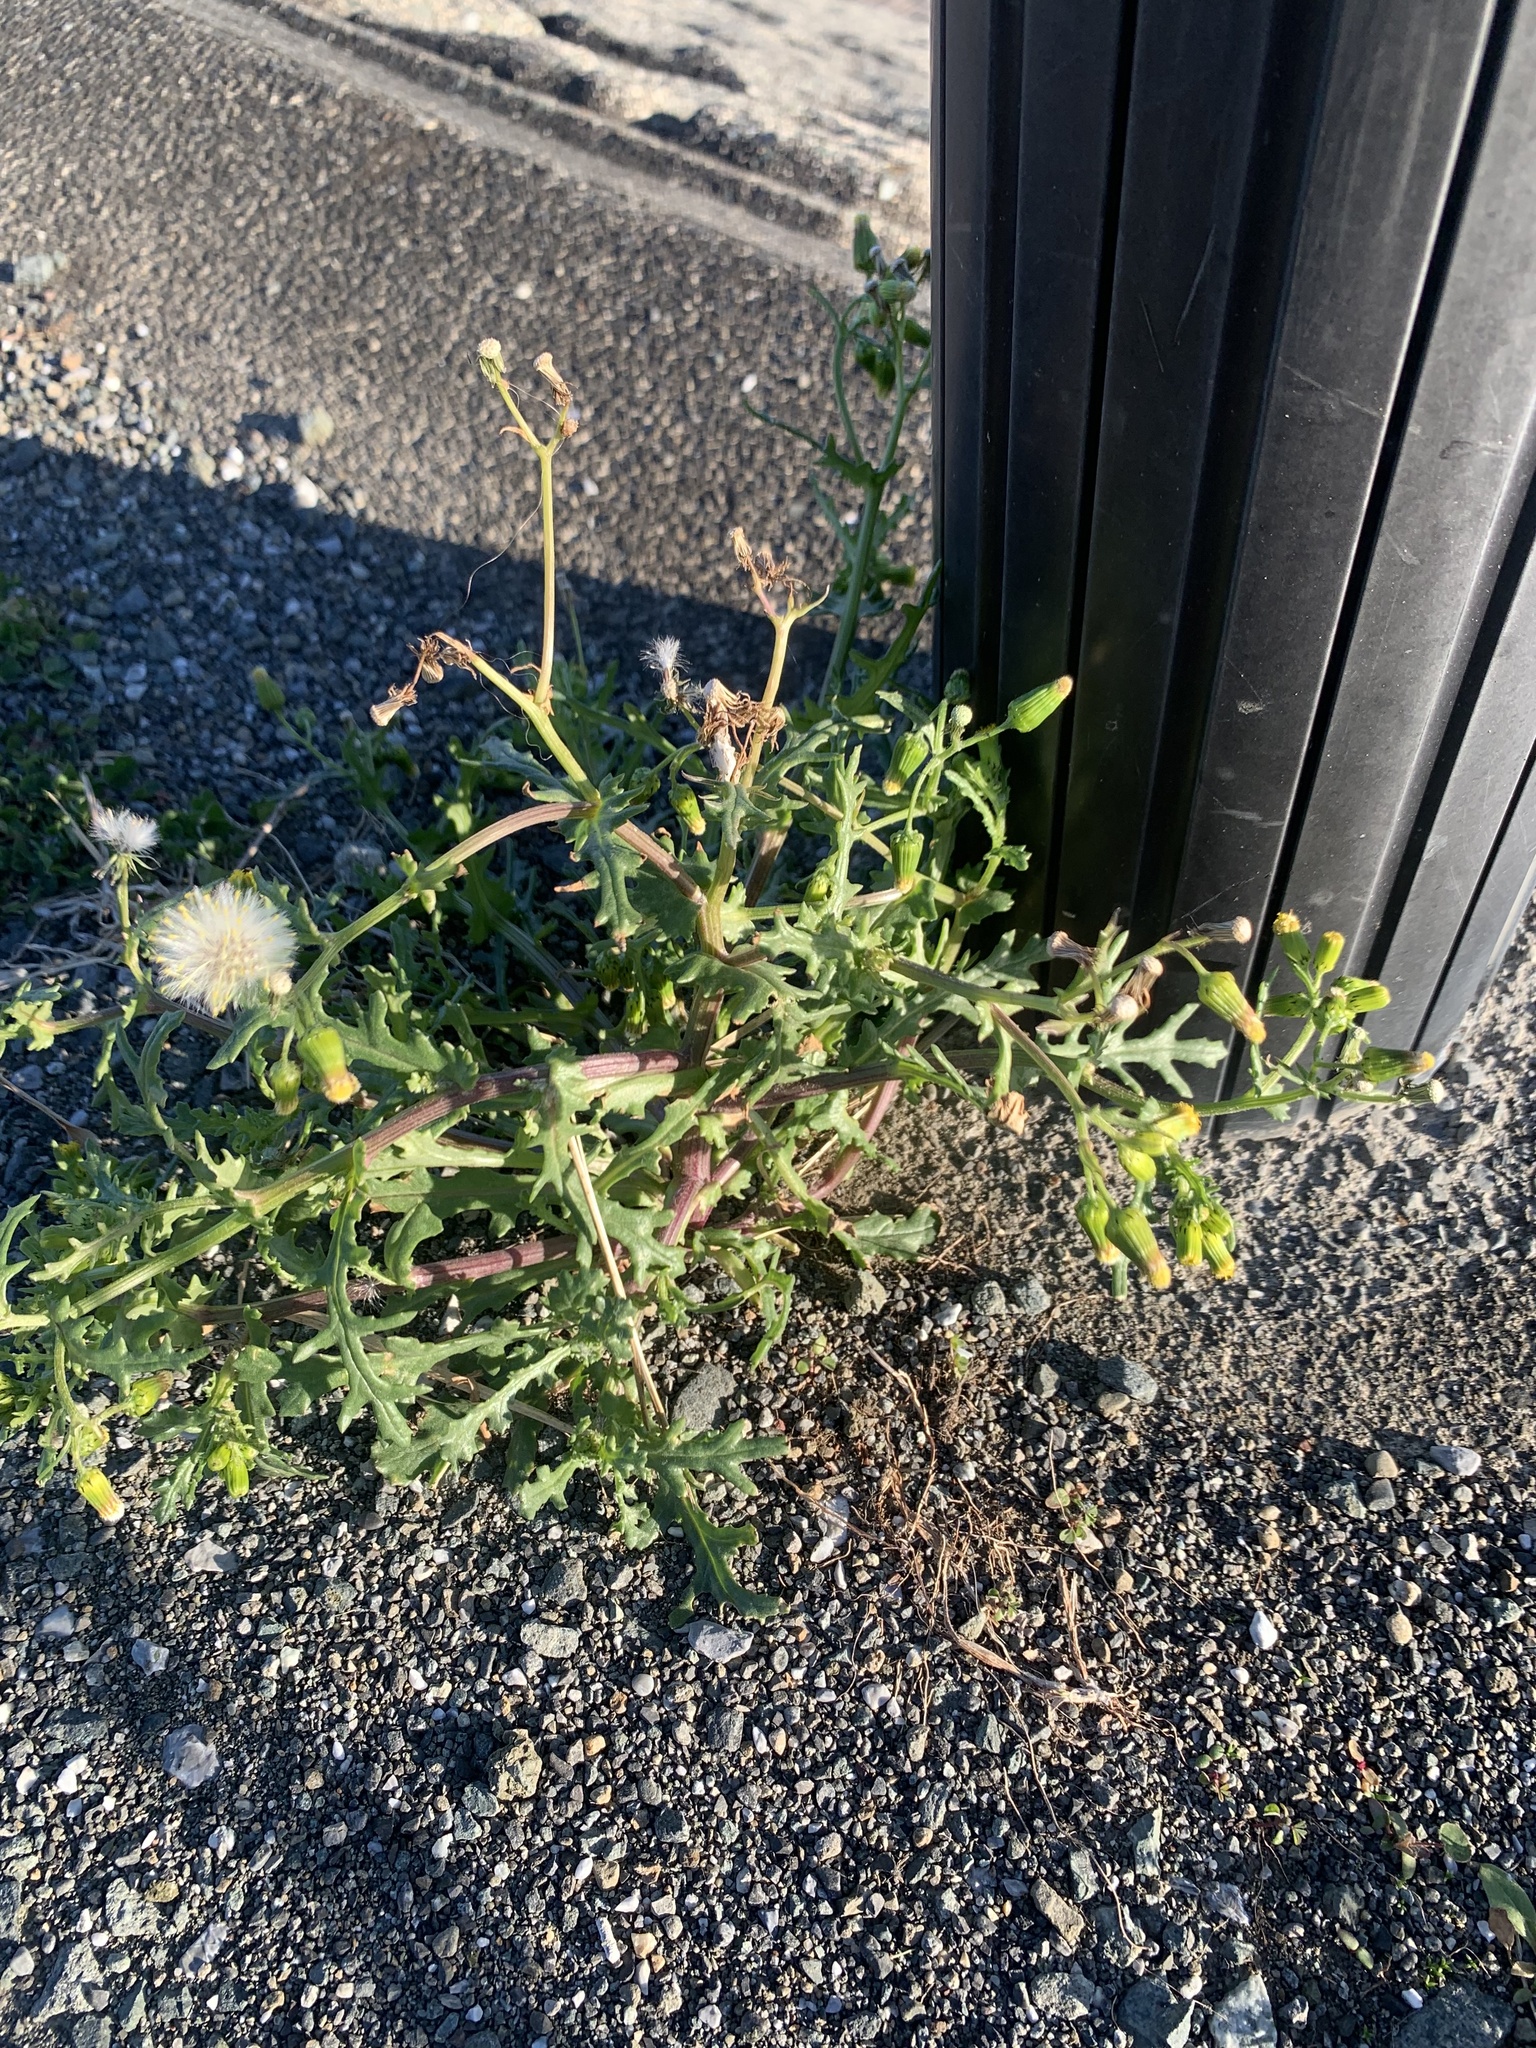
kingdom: Plantae
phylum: Tracheophyta
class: Magnoliopsida
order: Asterales
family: Asteraceae
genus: Senecio
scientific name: Senecio vulgaris
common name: Old-man-in-the-spring
